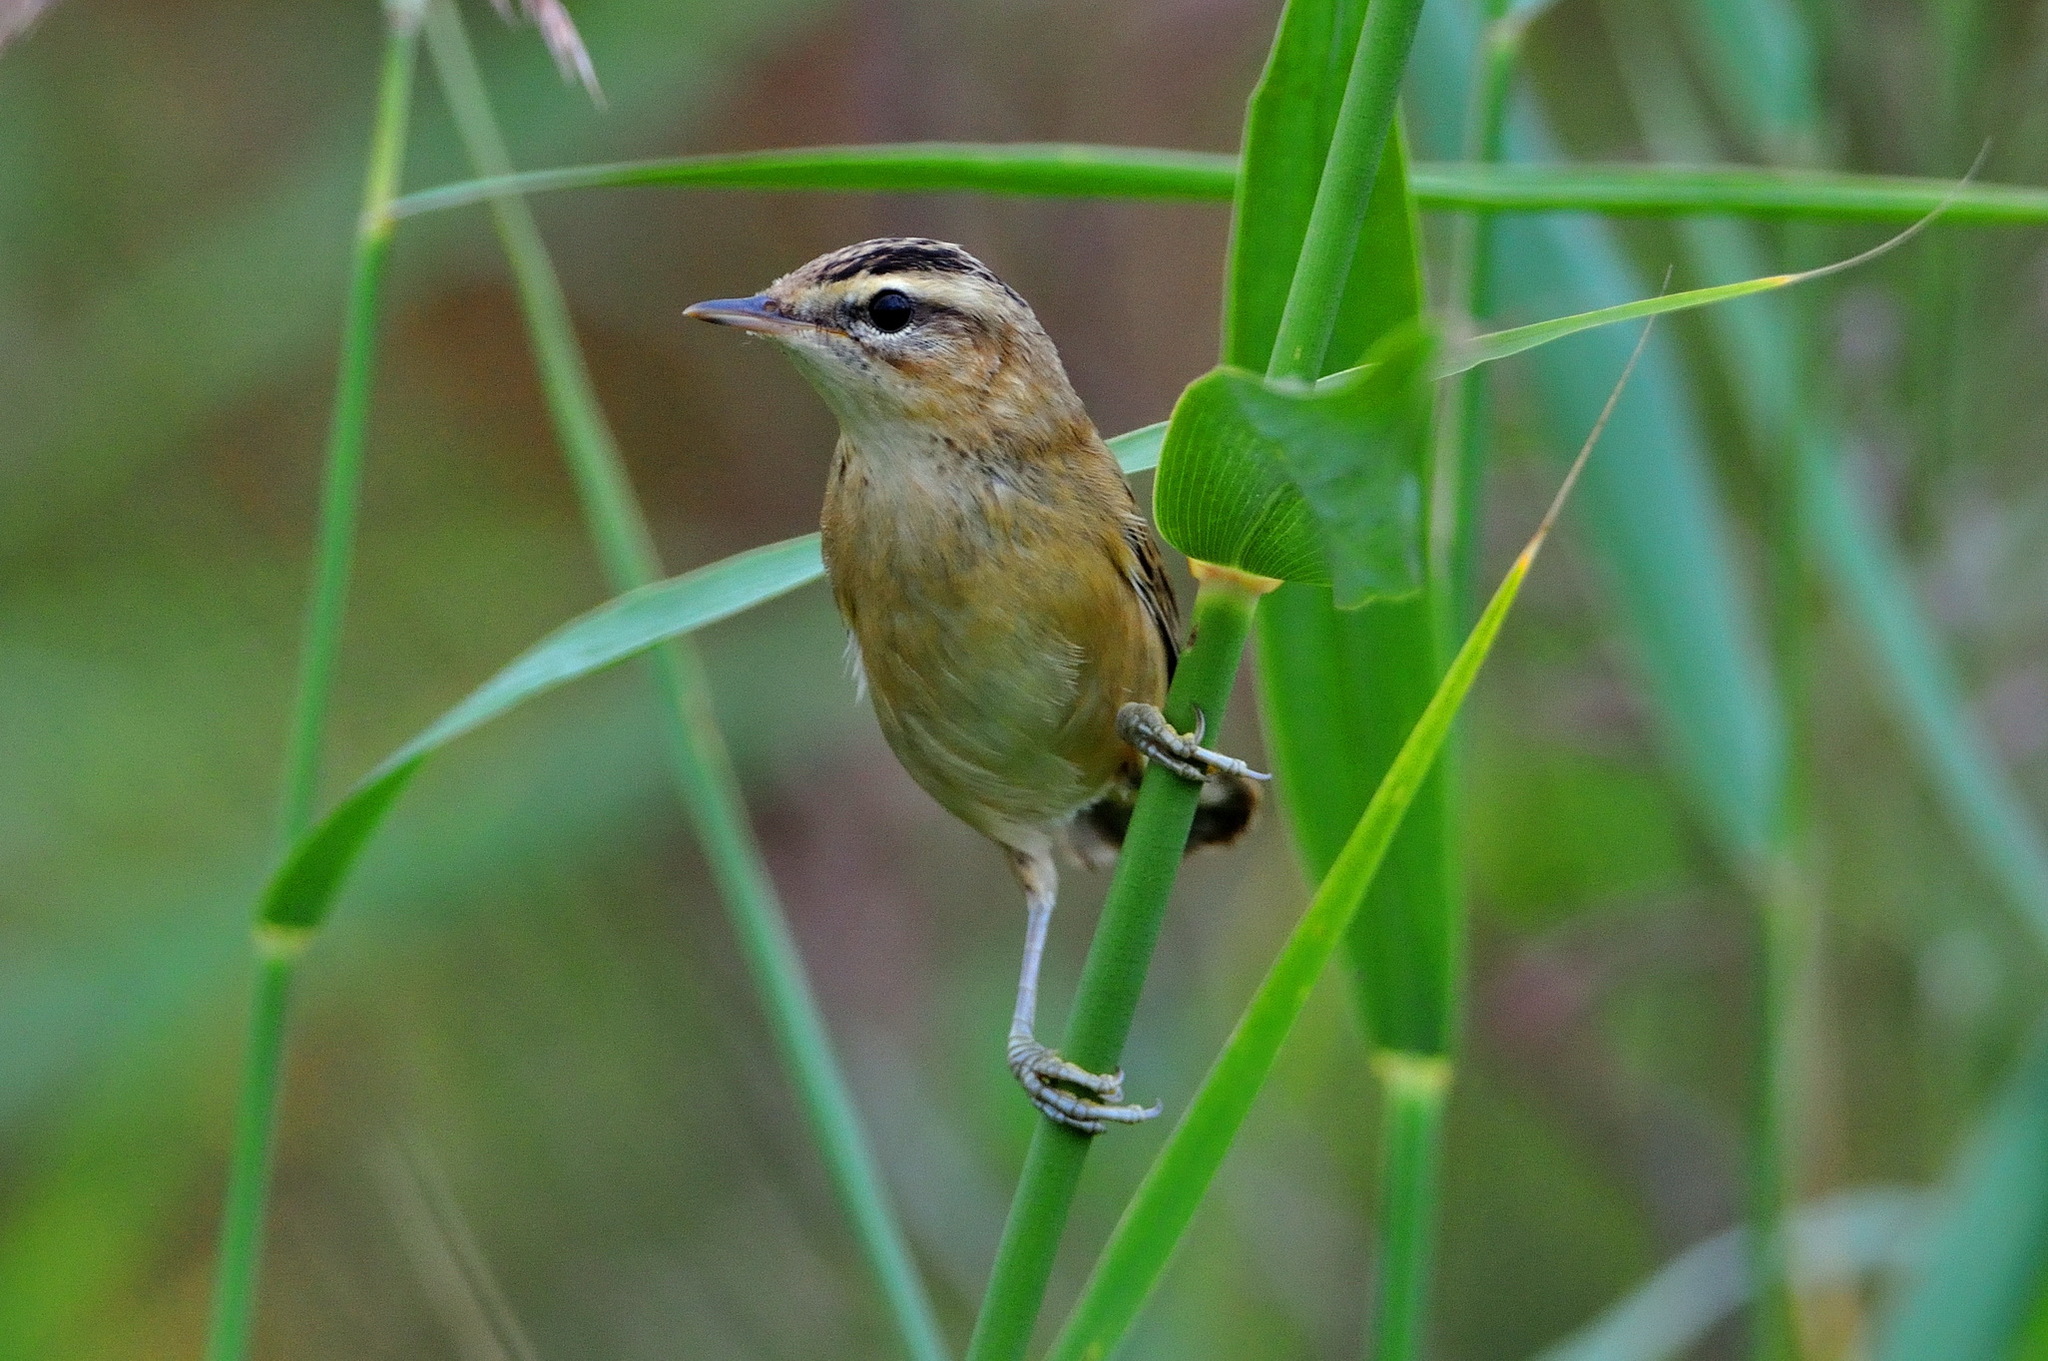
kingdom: Animalia
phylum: Chordata
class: Aves
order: Passeriformes
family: Acrocephalidae
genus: Acrocephalus
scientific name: Acrocephalus schoenobaenus
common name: Sedge warbler
